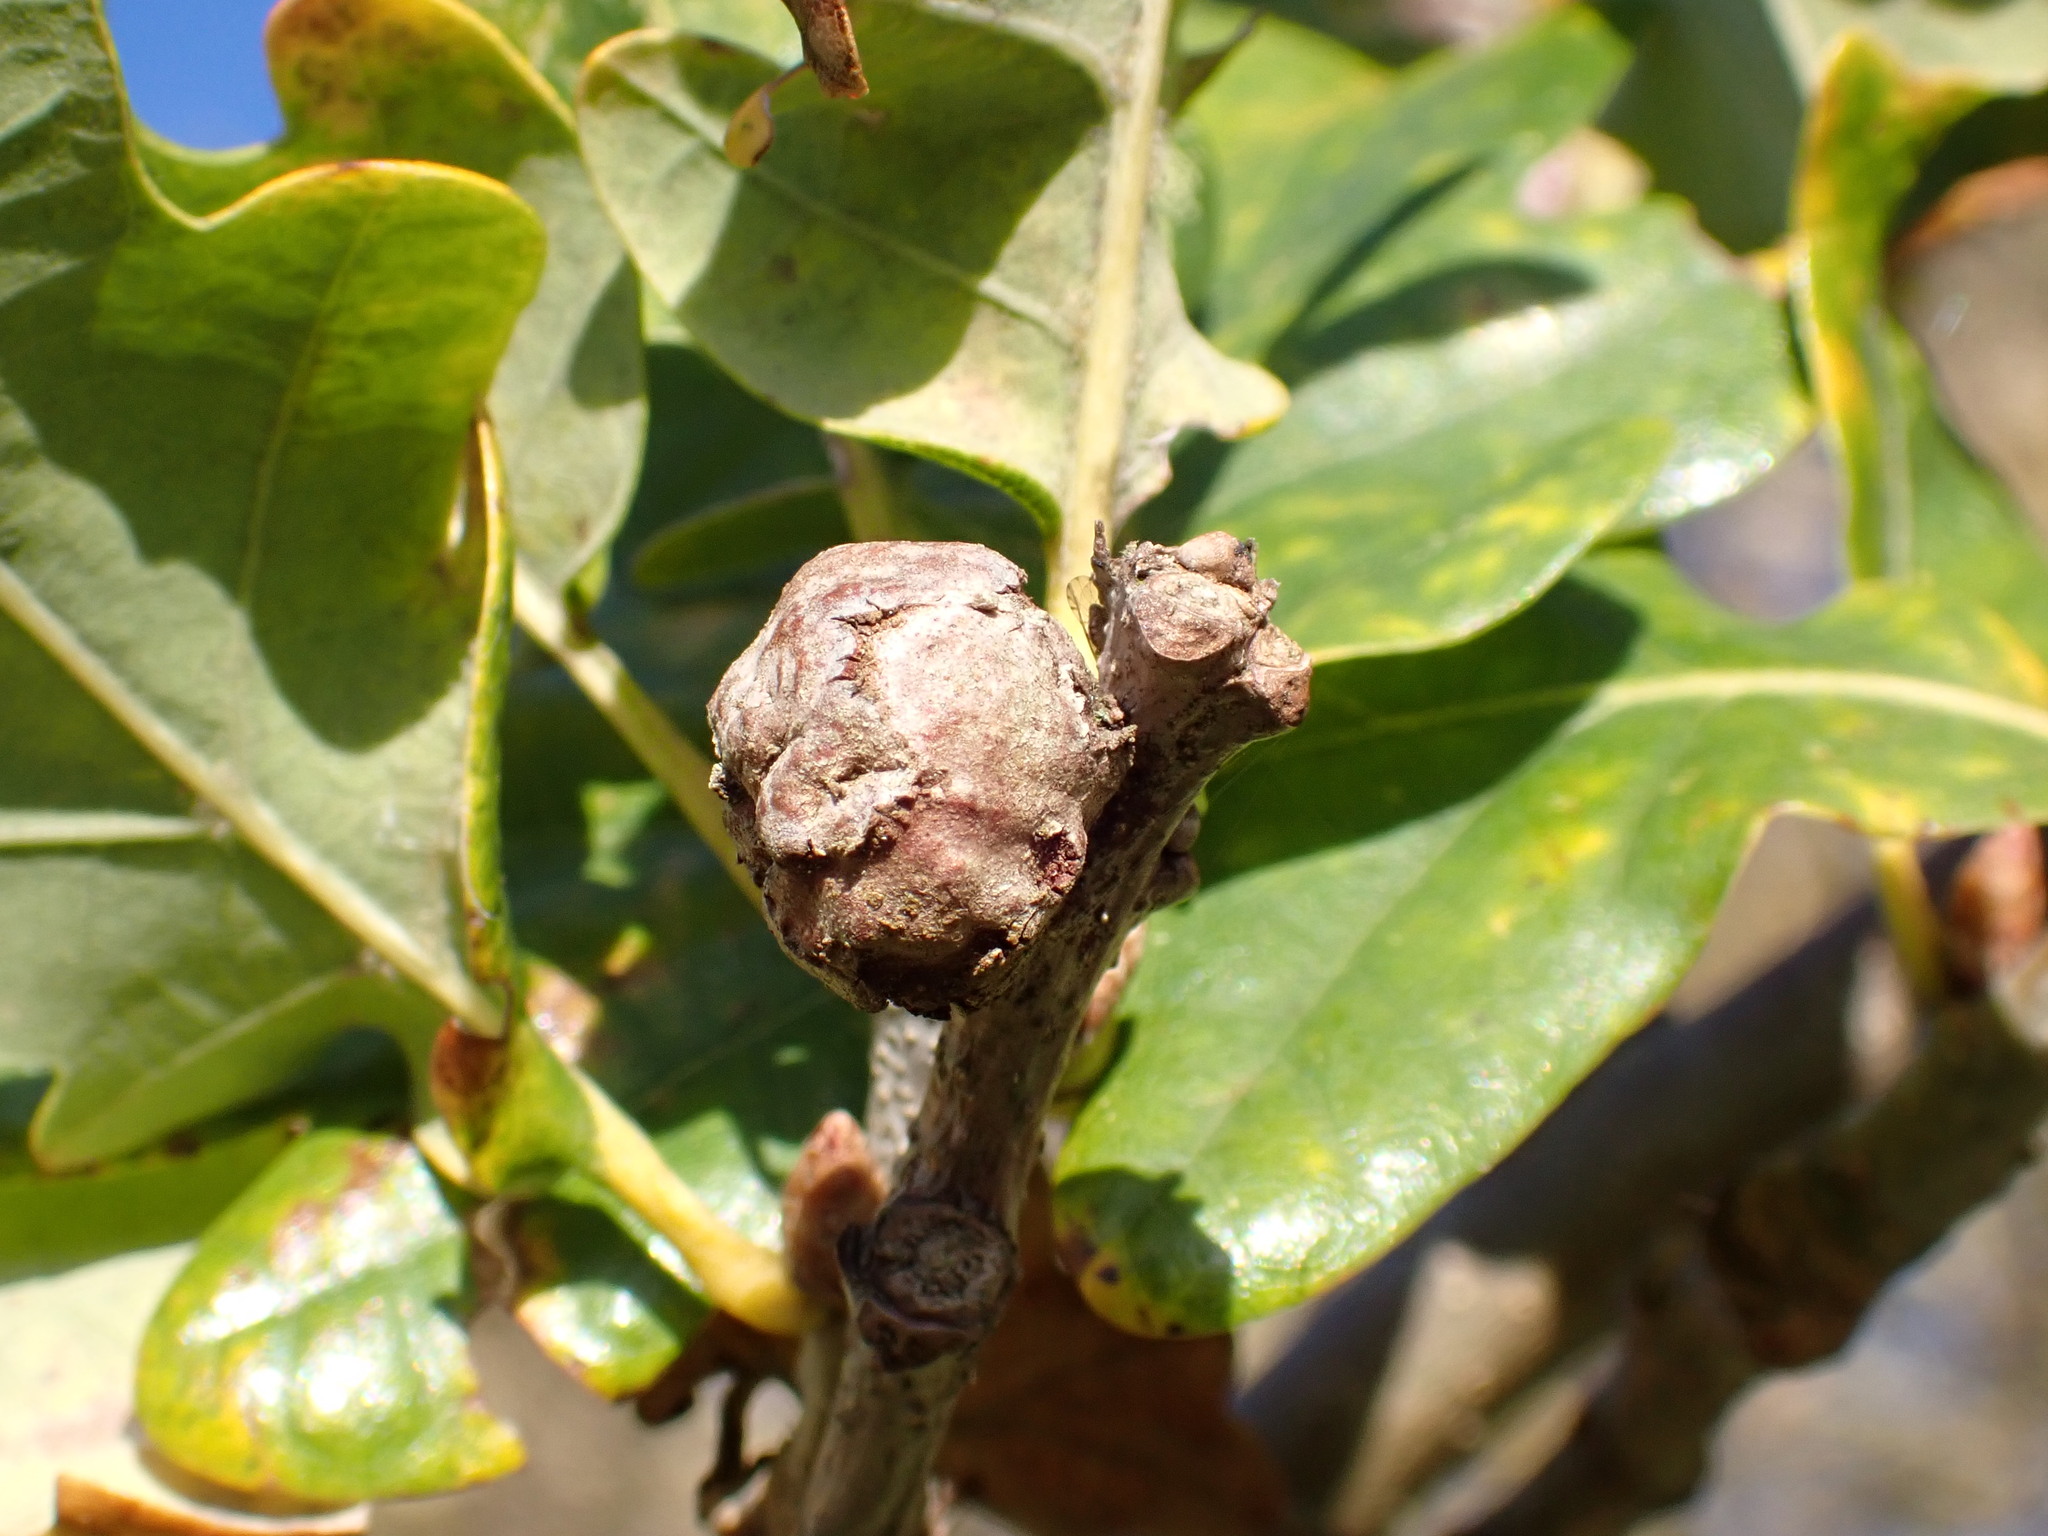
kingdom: Animalia
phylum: Arthropoda
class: Insecta
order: Hymenoptera
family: Cynipidae
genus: Andricus
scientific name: Andricus lignicolus
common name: Cola-nut gall
